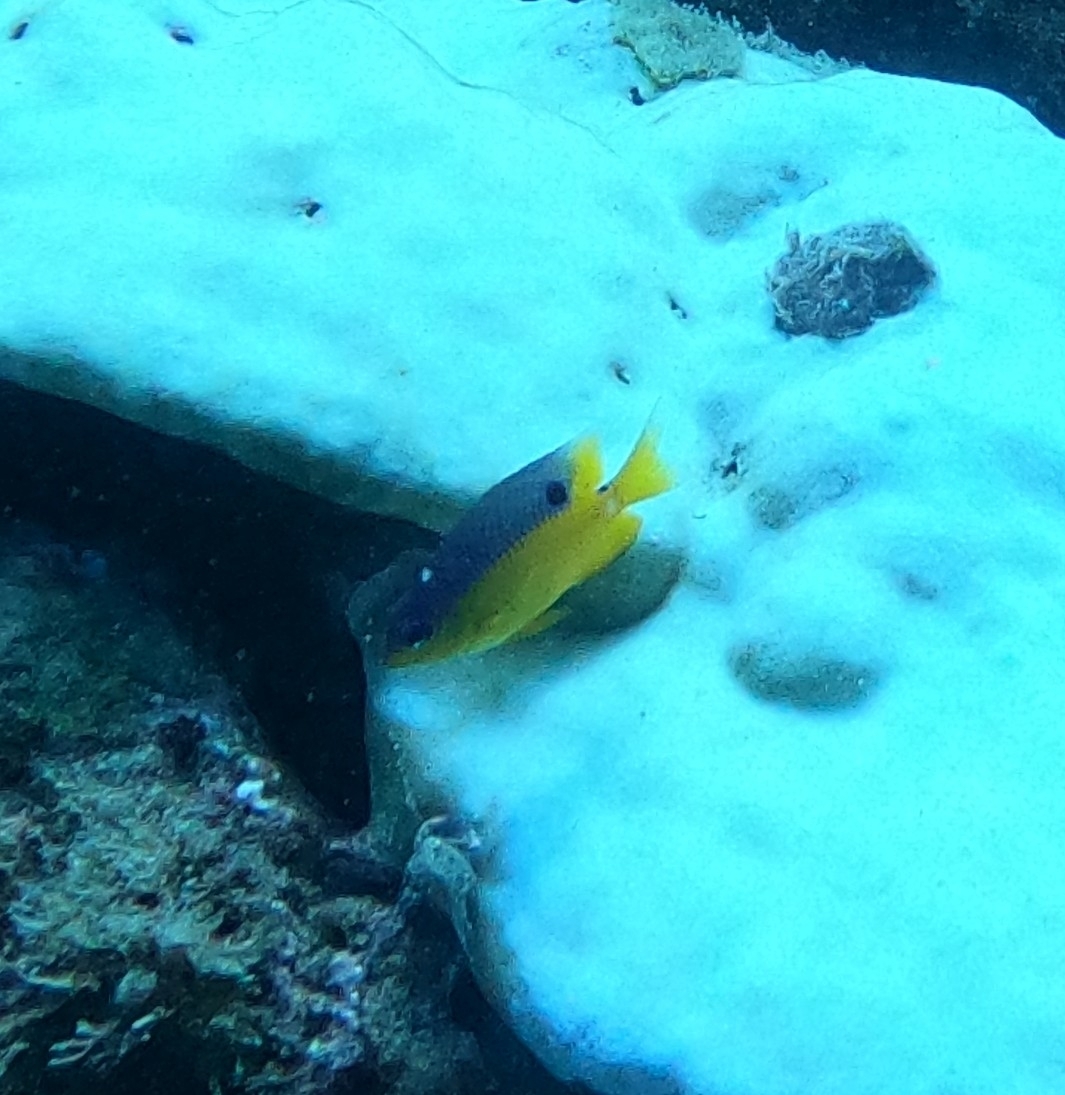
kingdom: Animalia
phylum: Chordata
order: Perciformes
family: Pomacentridae
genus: Stegastes
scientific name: Stegastes flavilatus
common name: Beaubrummel
